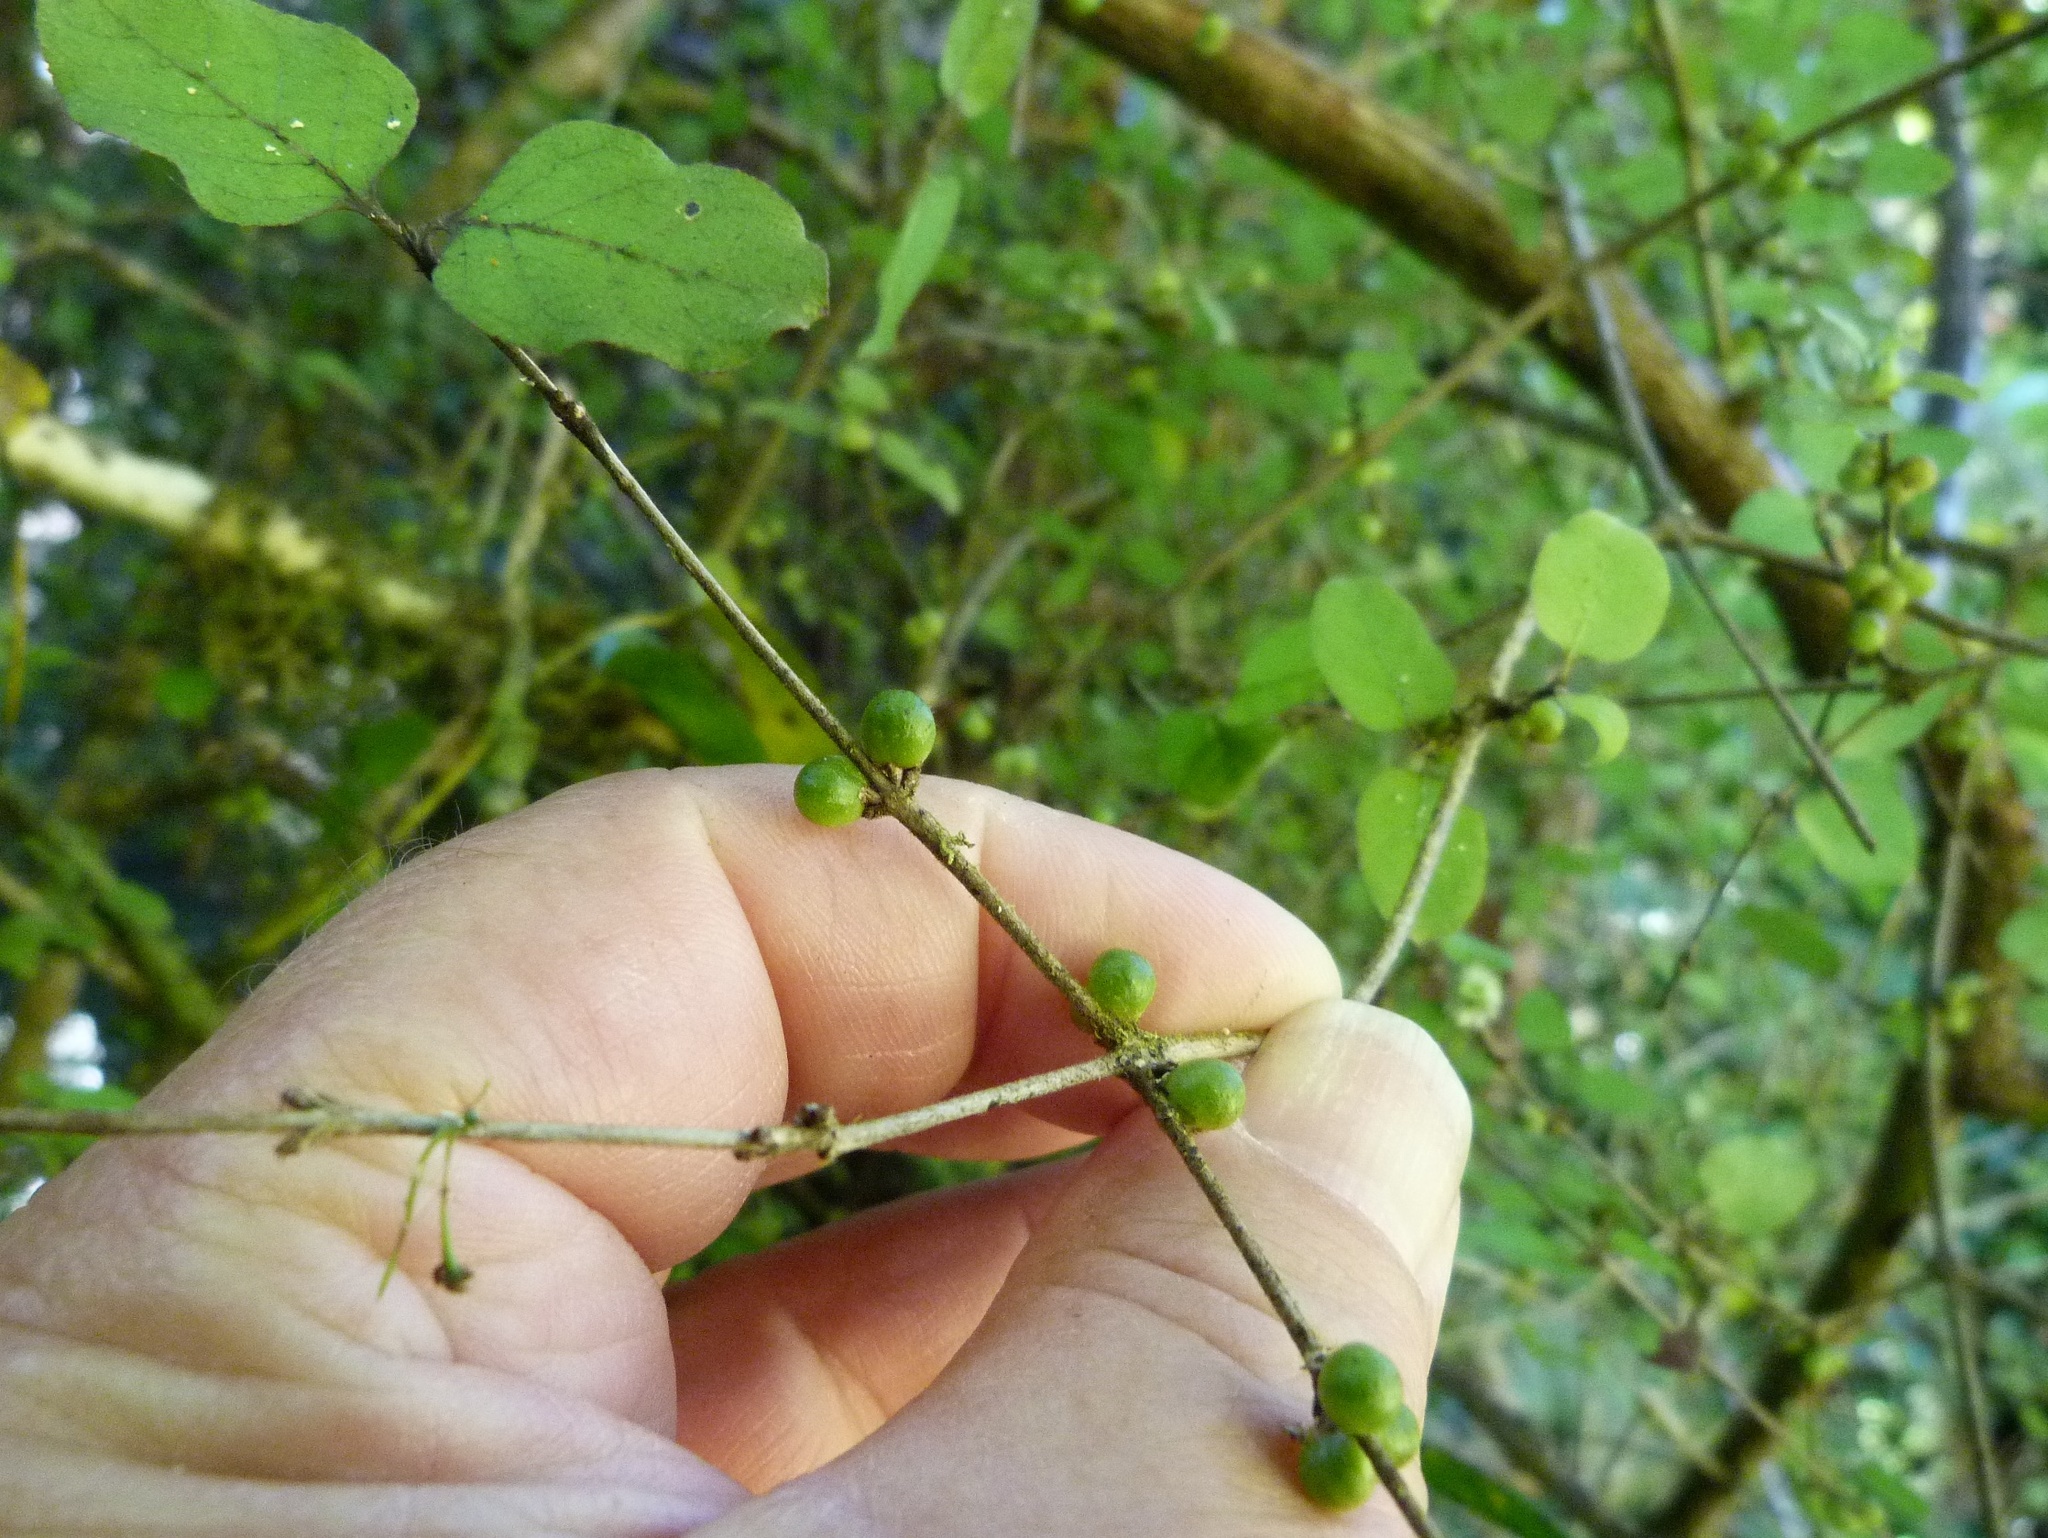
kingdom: Plantae
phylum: Tracheophyta
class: Magnoliopsida
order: Gentianales
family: Rubiaceae
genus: Coprosma
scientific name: Coprosma rotundifolia
